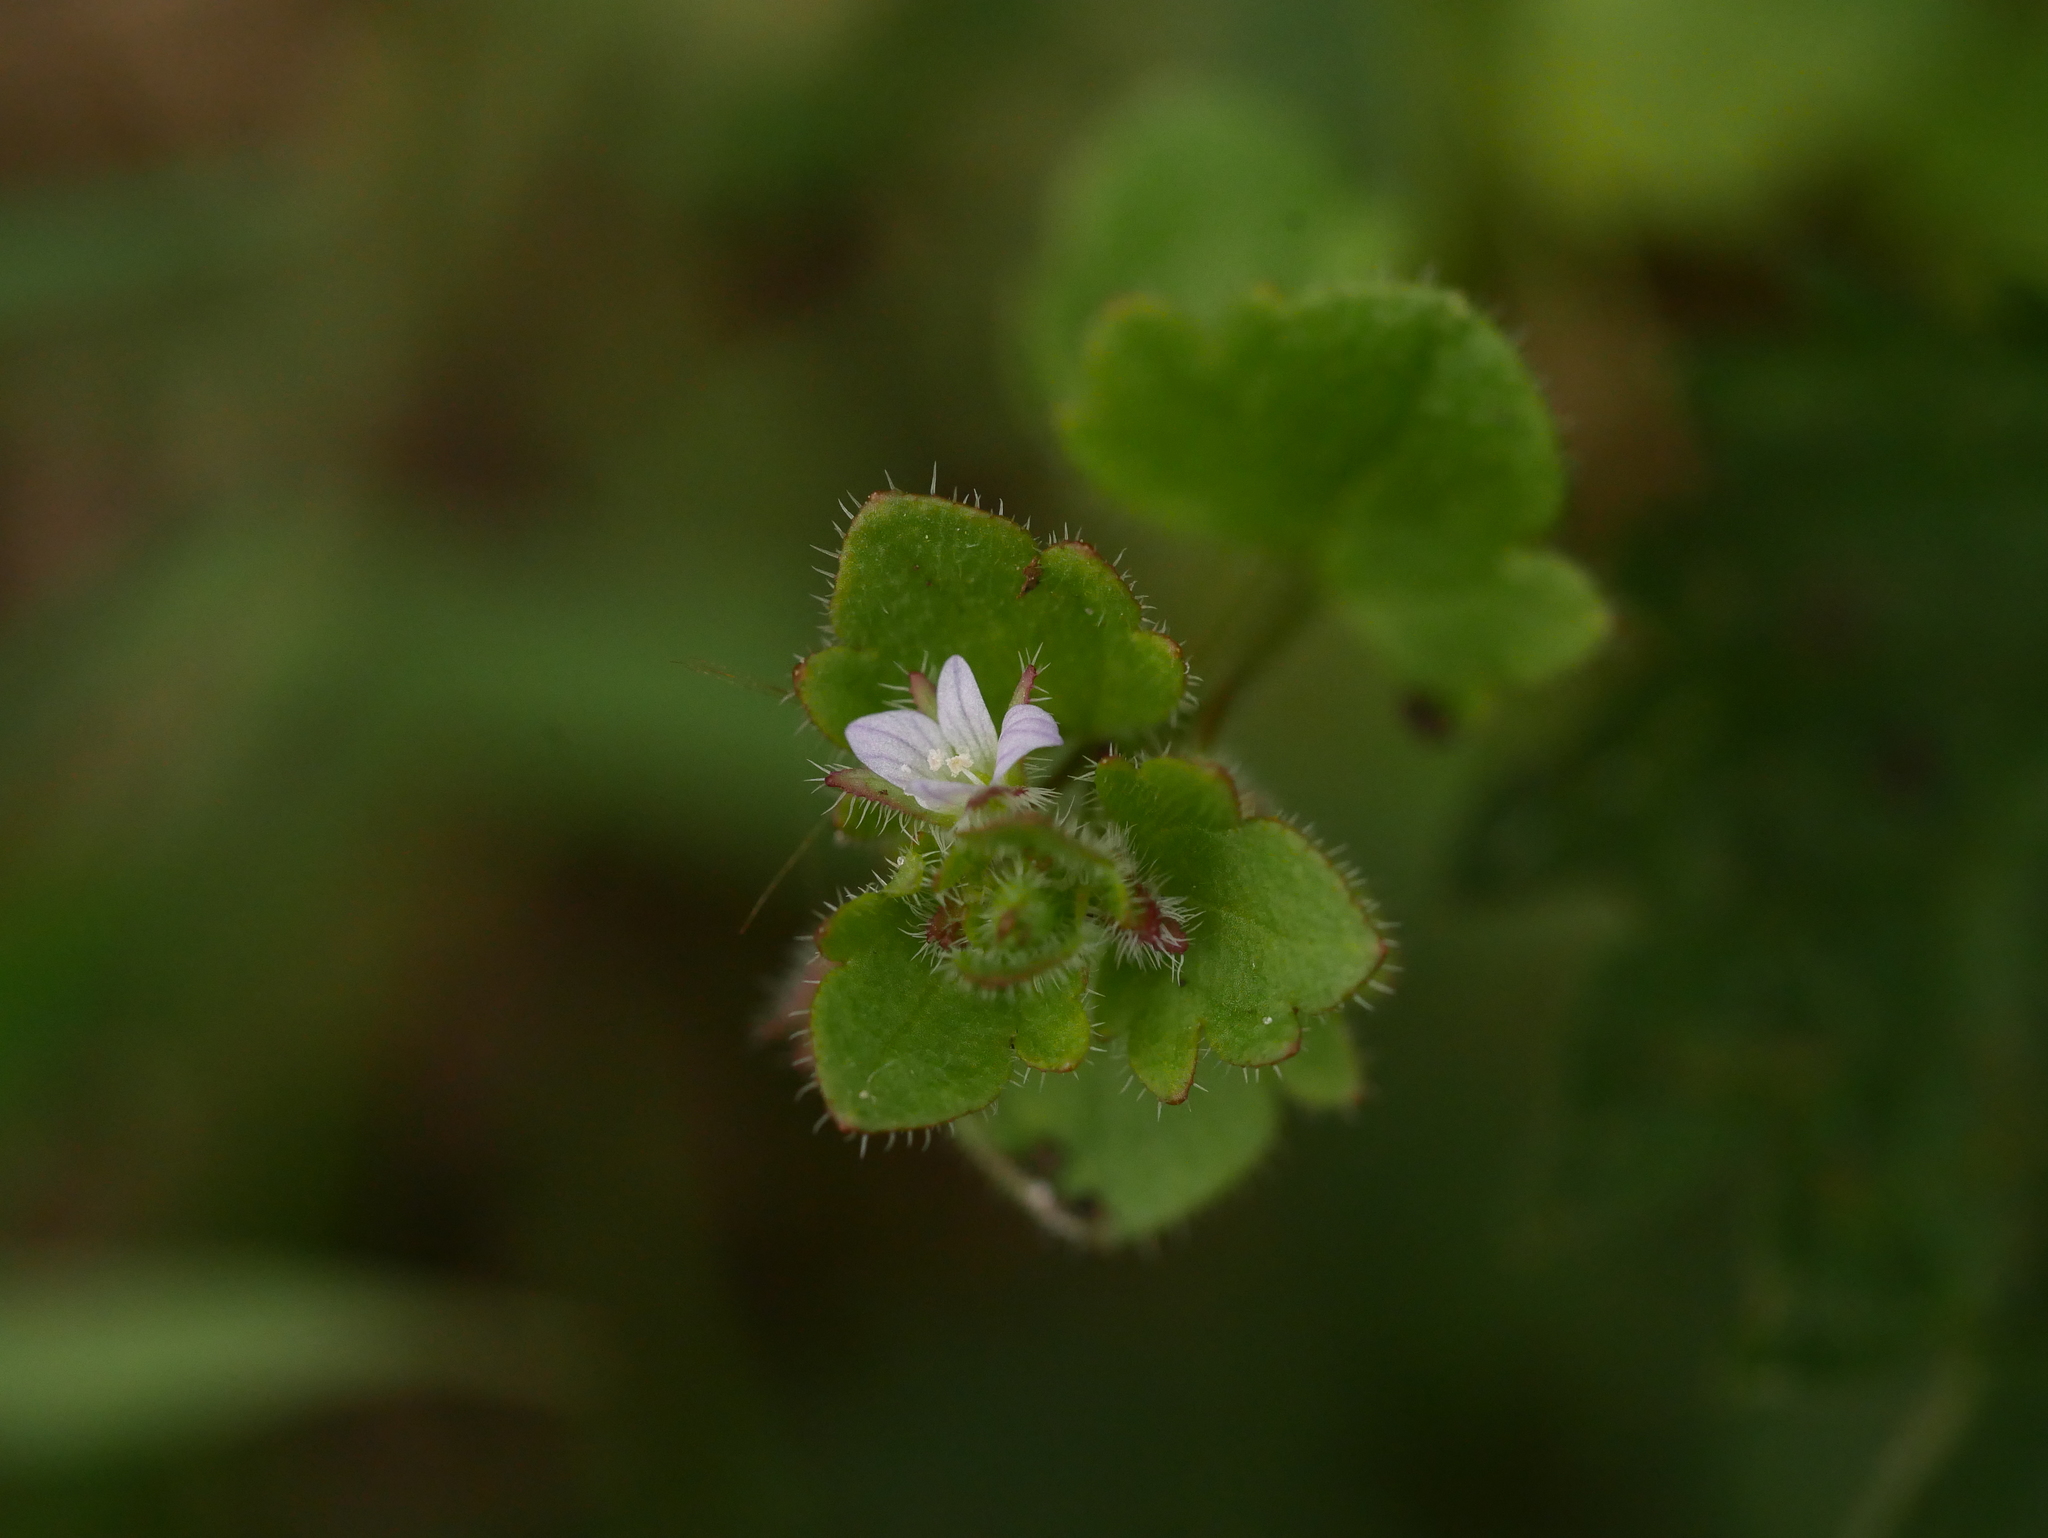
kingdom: Plantae
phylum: Tracheophyta
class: Magnoliopsida
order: Lamiales
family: Plantaginaceae
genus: Veronica
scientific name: Veronica sublobata
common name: False ivy-leaved speedwell
